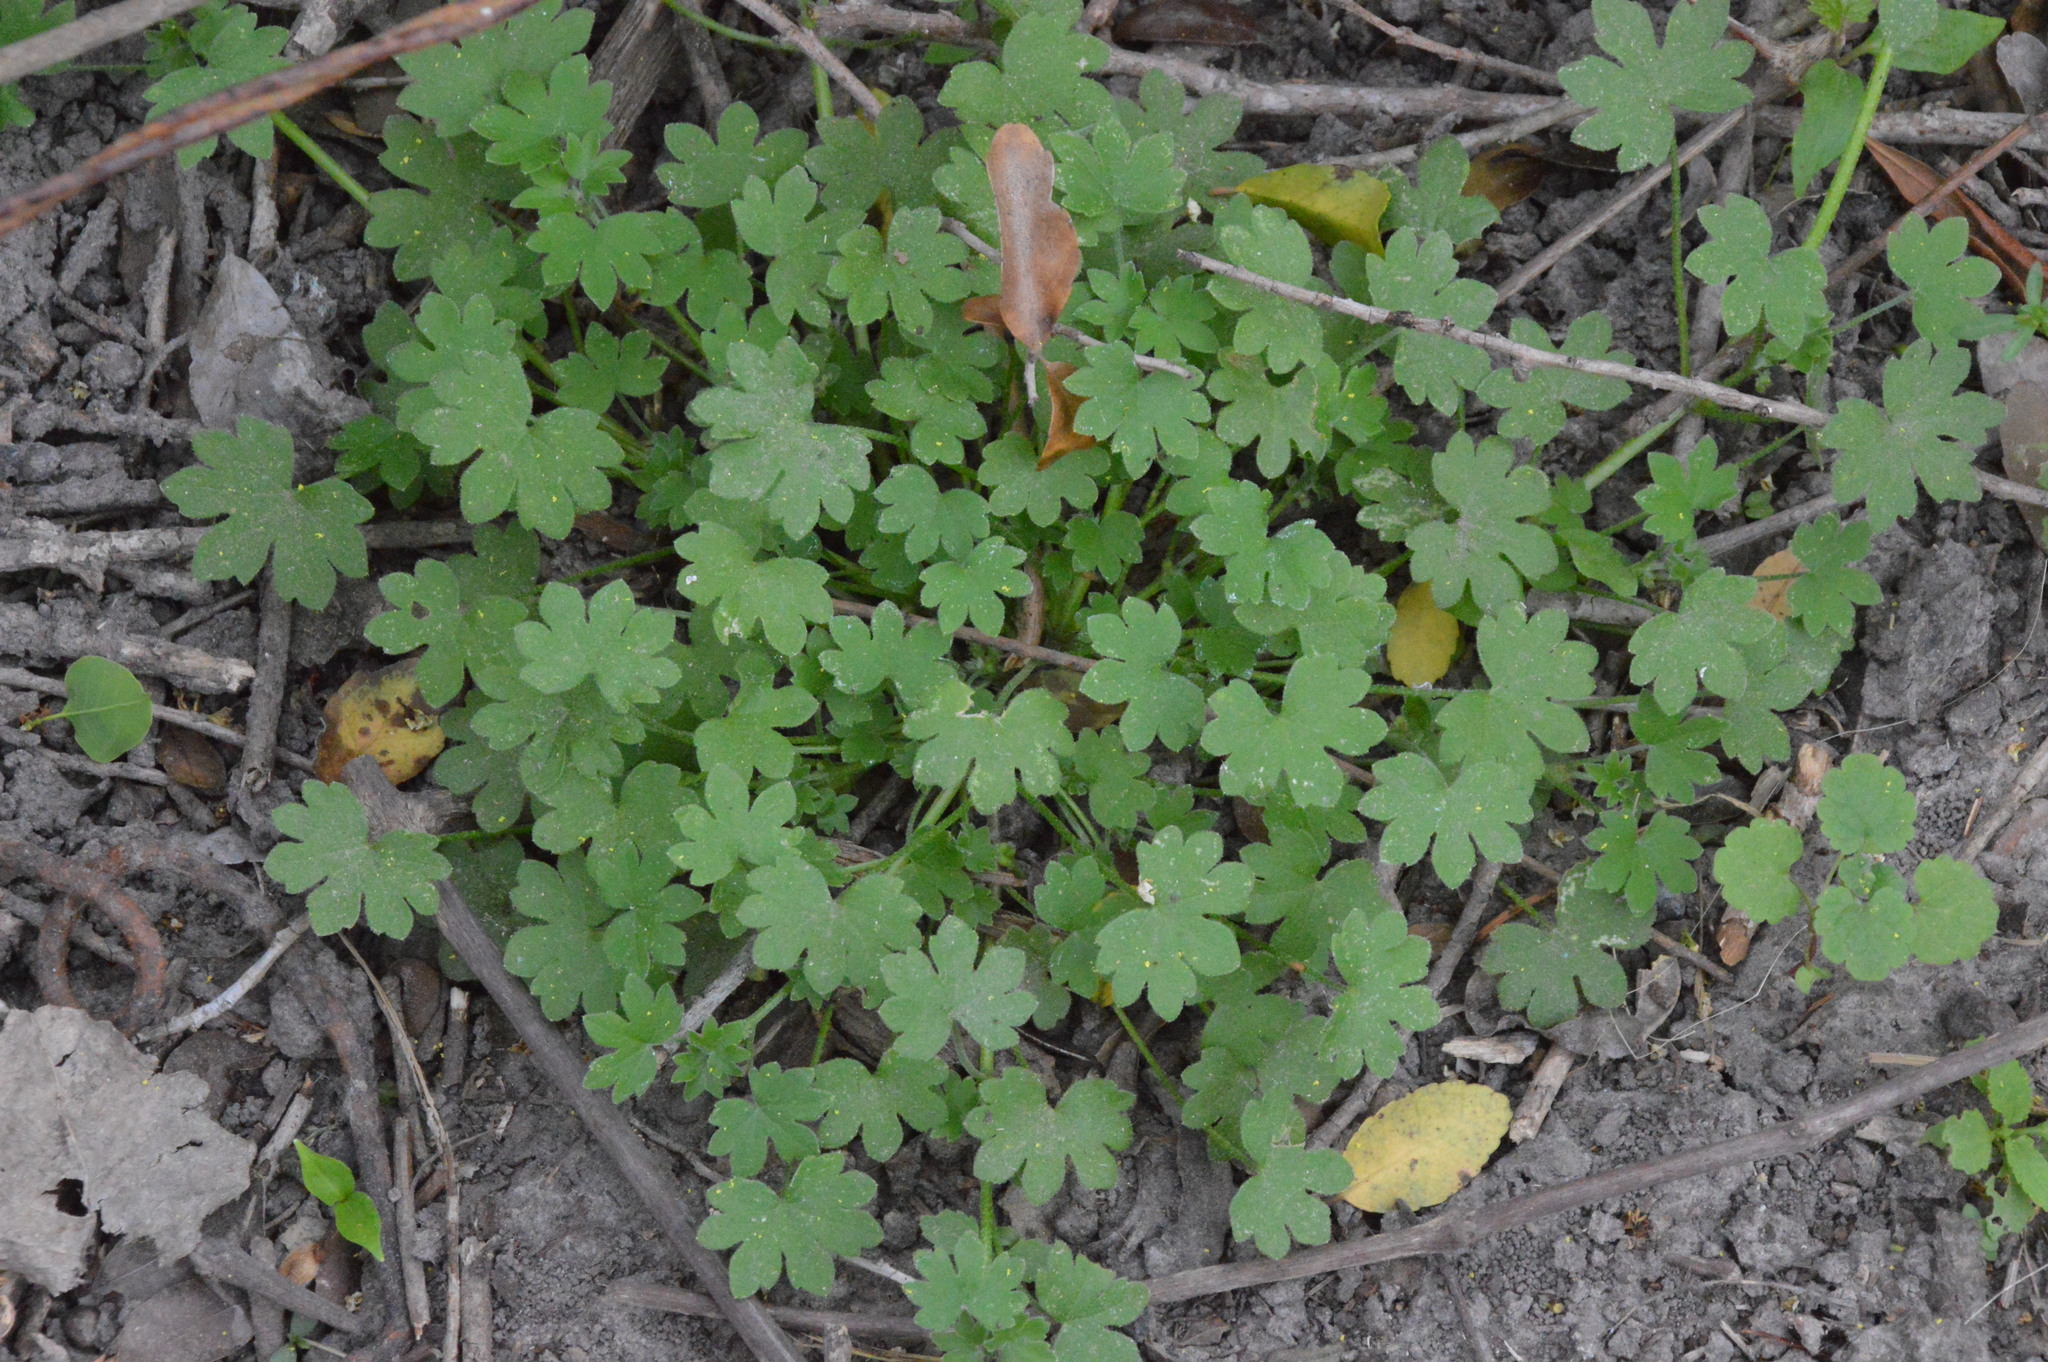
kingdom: Plantae
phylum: Tracheophyta
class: Magnoliopsida
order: Apiales
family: Apiaceae
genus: Bowlesia
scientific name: Bowlesia incana
